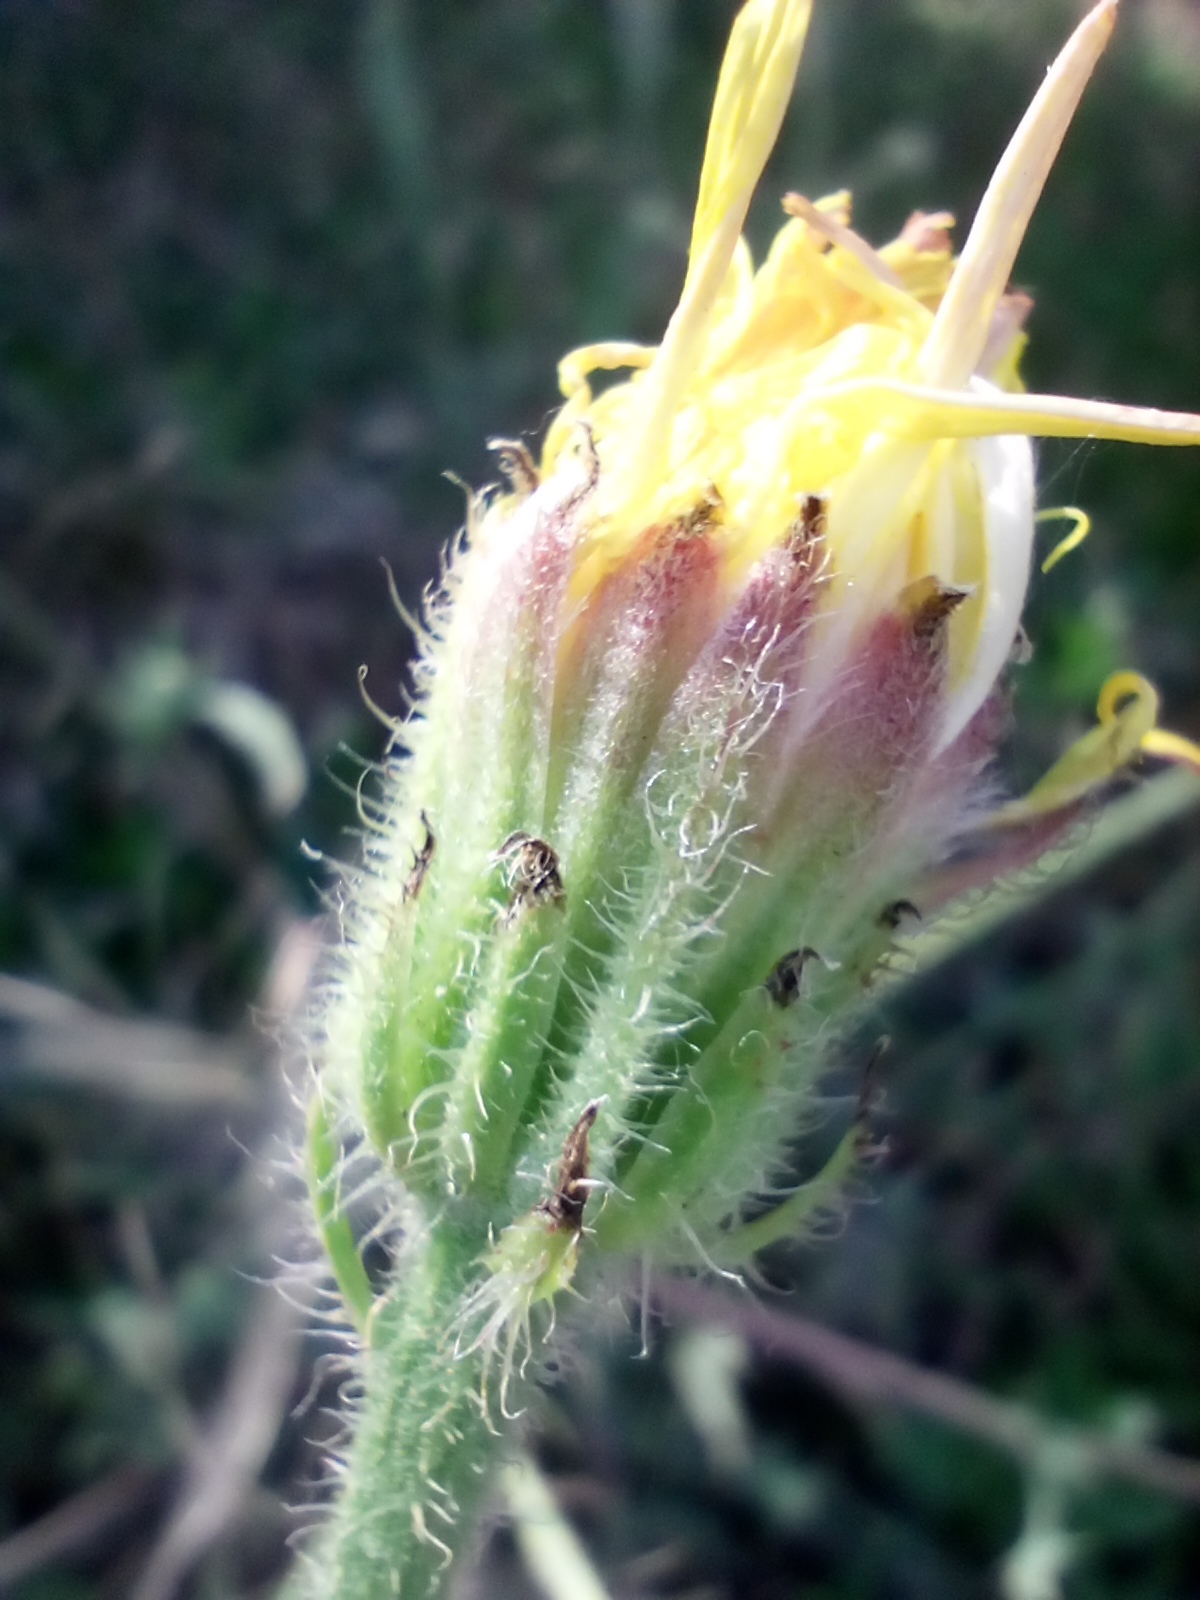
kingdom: Plantae
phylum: Tracheophyta
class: Magnoliopsida
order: Asterales
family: Asteraceae
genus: Crepis
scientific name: Crepis foetida
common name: Stinking hawk's-beard
